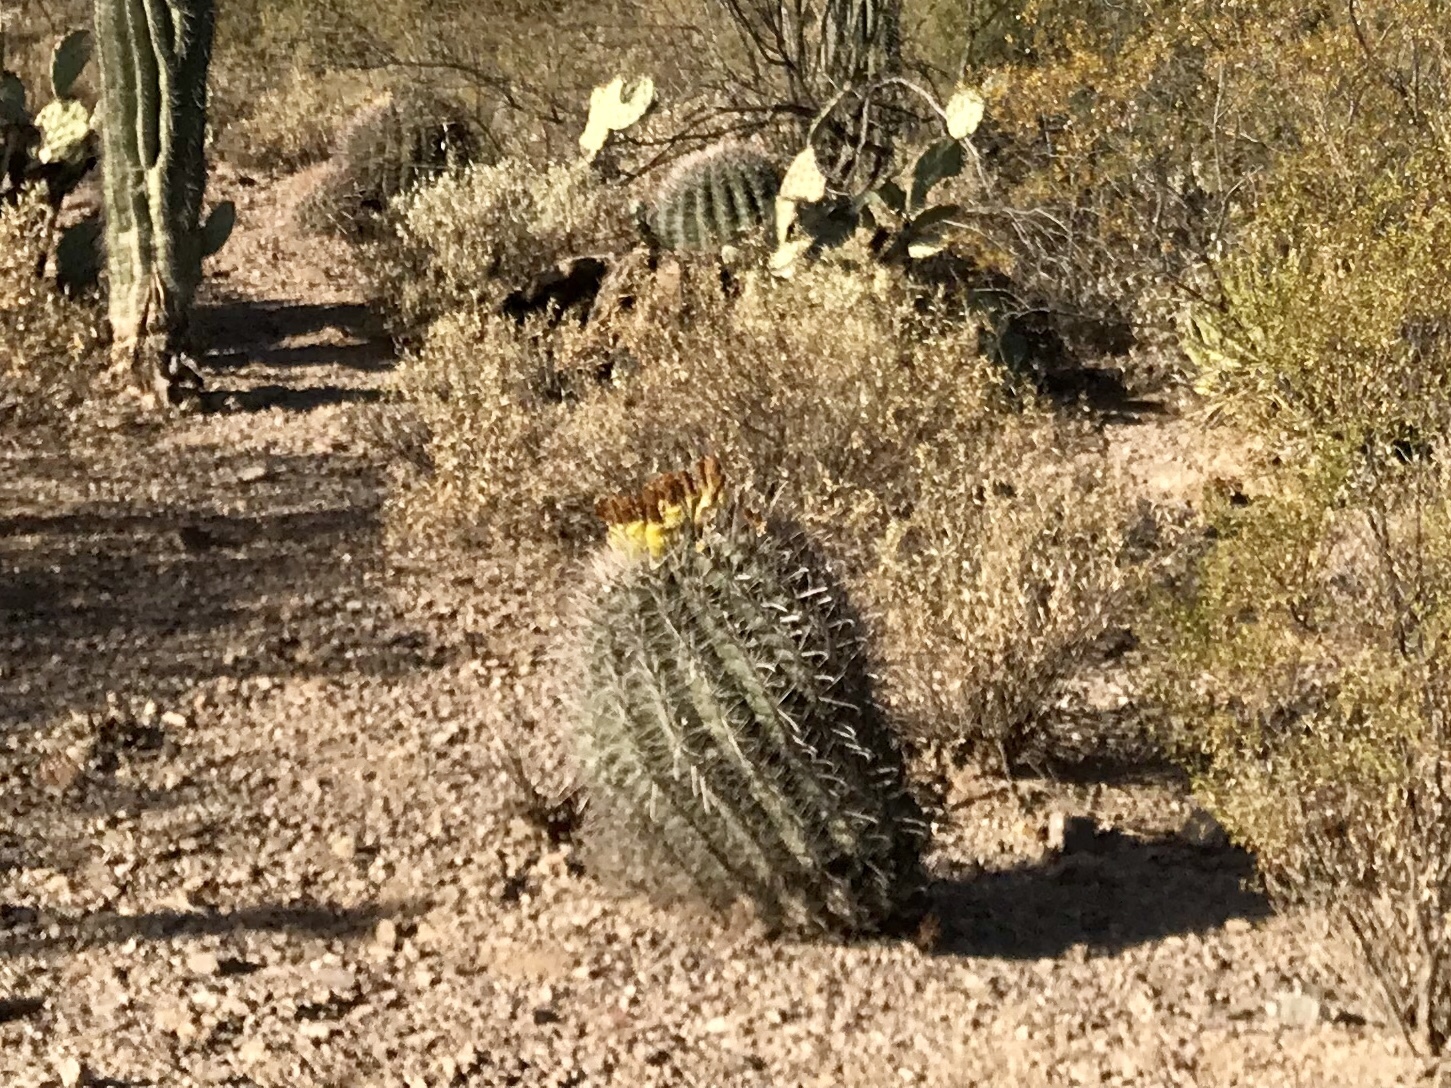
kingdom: Plantae
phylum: Tracheophyta
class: Magnoliopsida
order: Caryophyllales
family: Cactaceae
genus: Ferocactus
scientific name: Ferocactus wislizeni
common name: Candy barrel cactus
